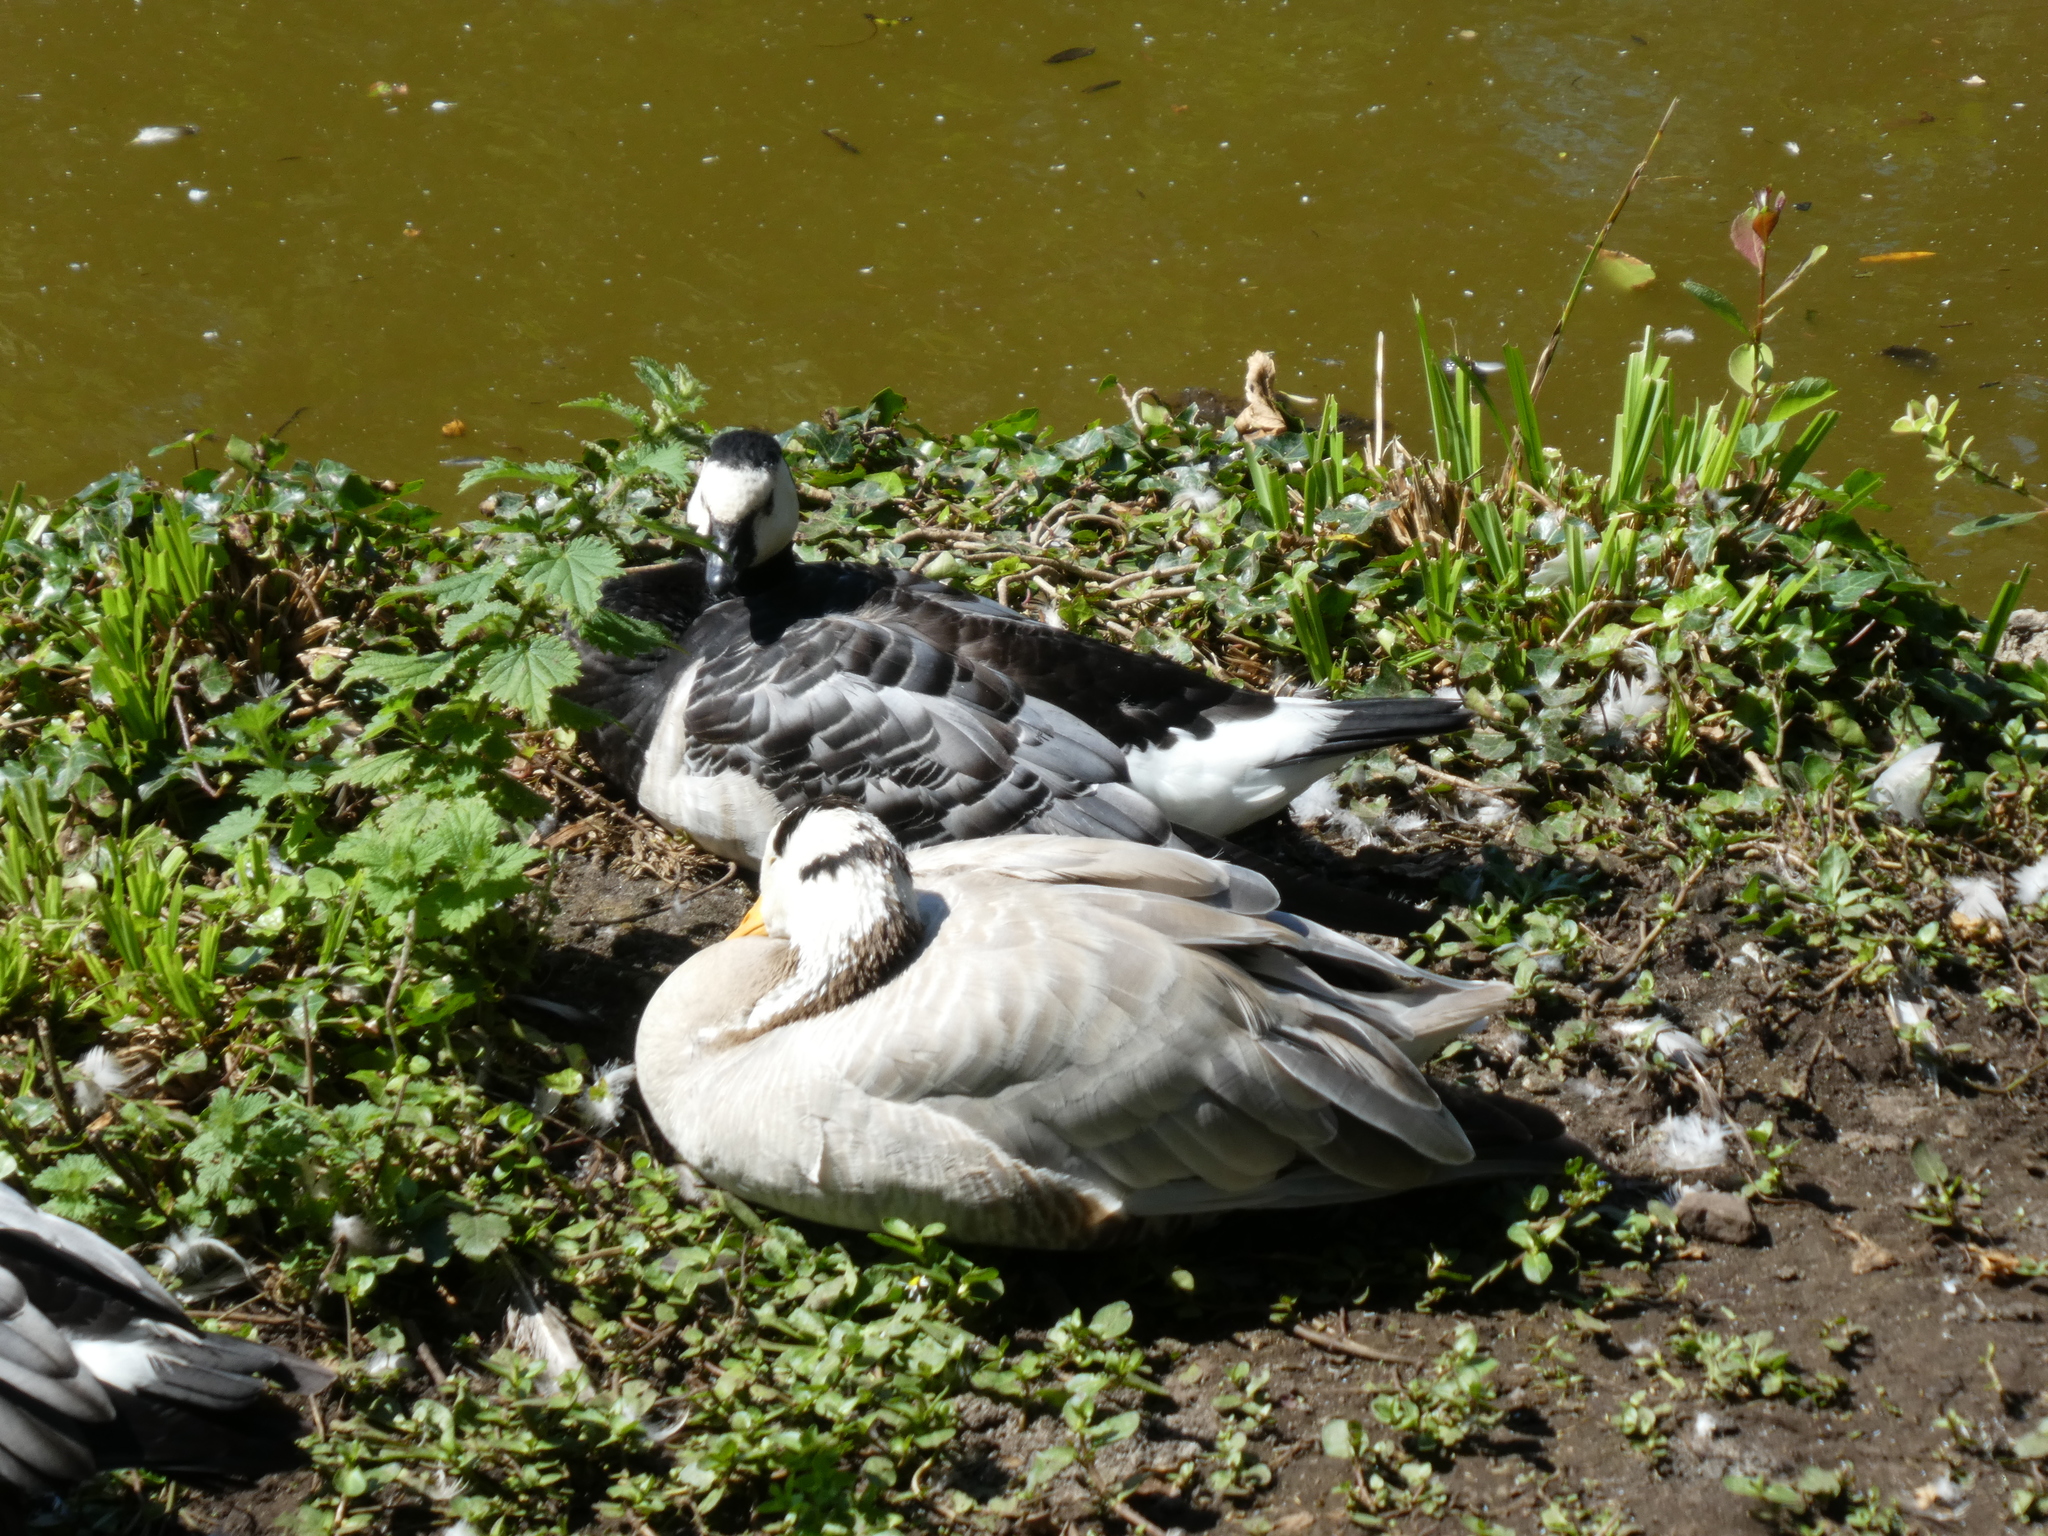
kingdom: Animalia
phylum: Chordata
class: Aves
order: Anseriformes
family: Anatidae
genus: Branta
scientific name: Branta leucopsis
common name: Barnacle goose
